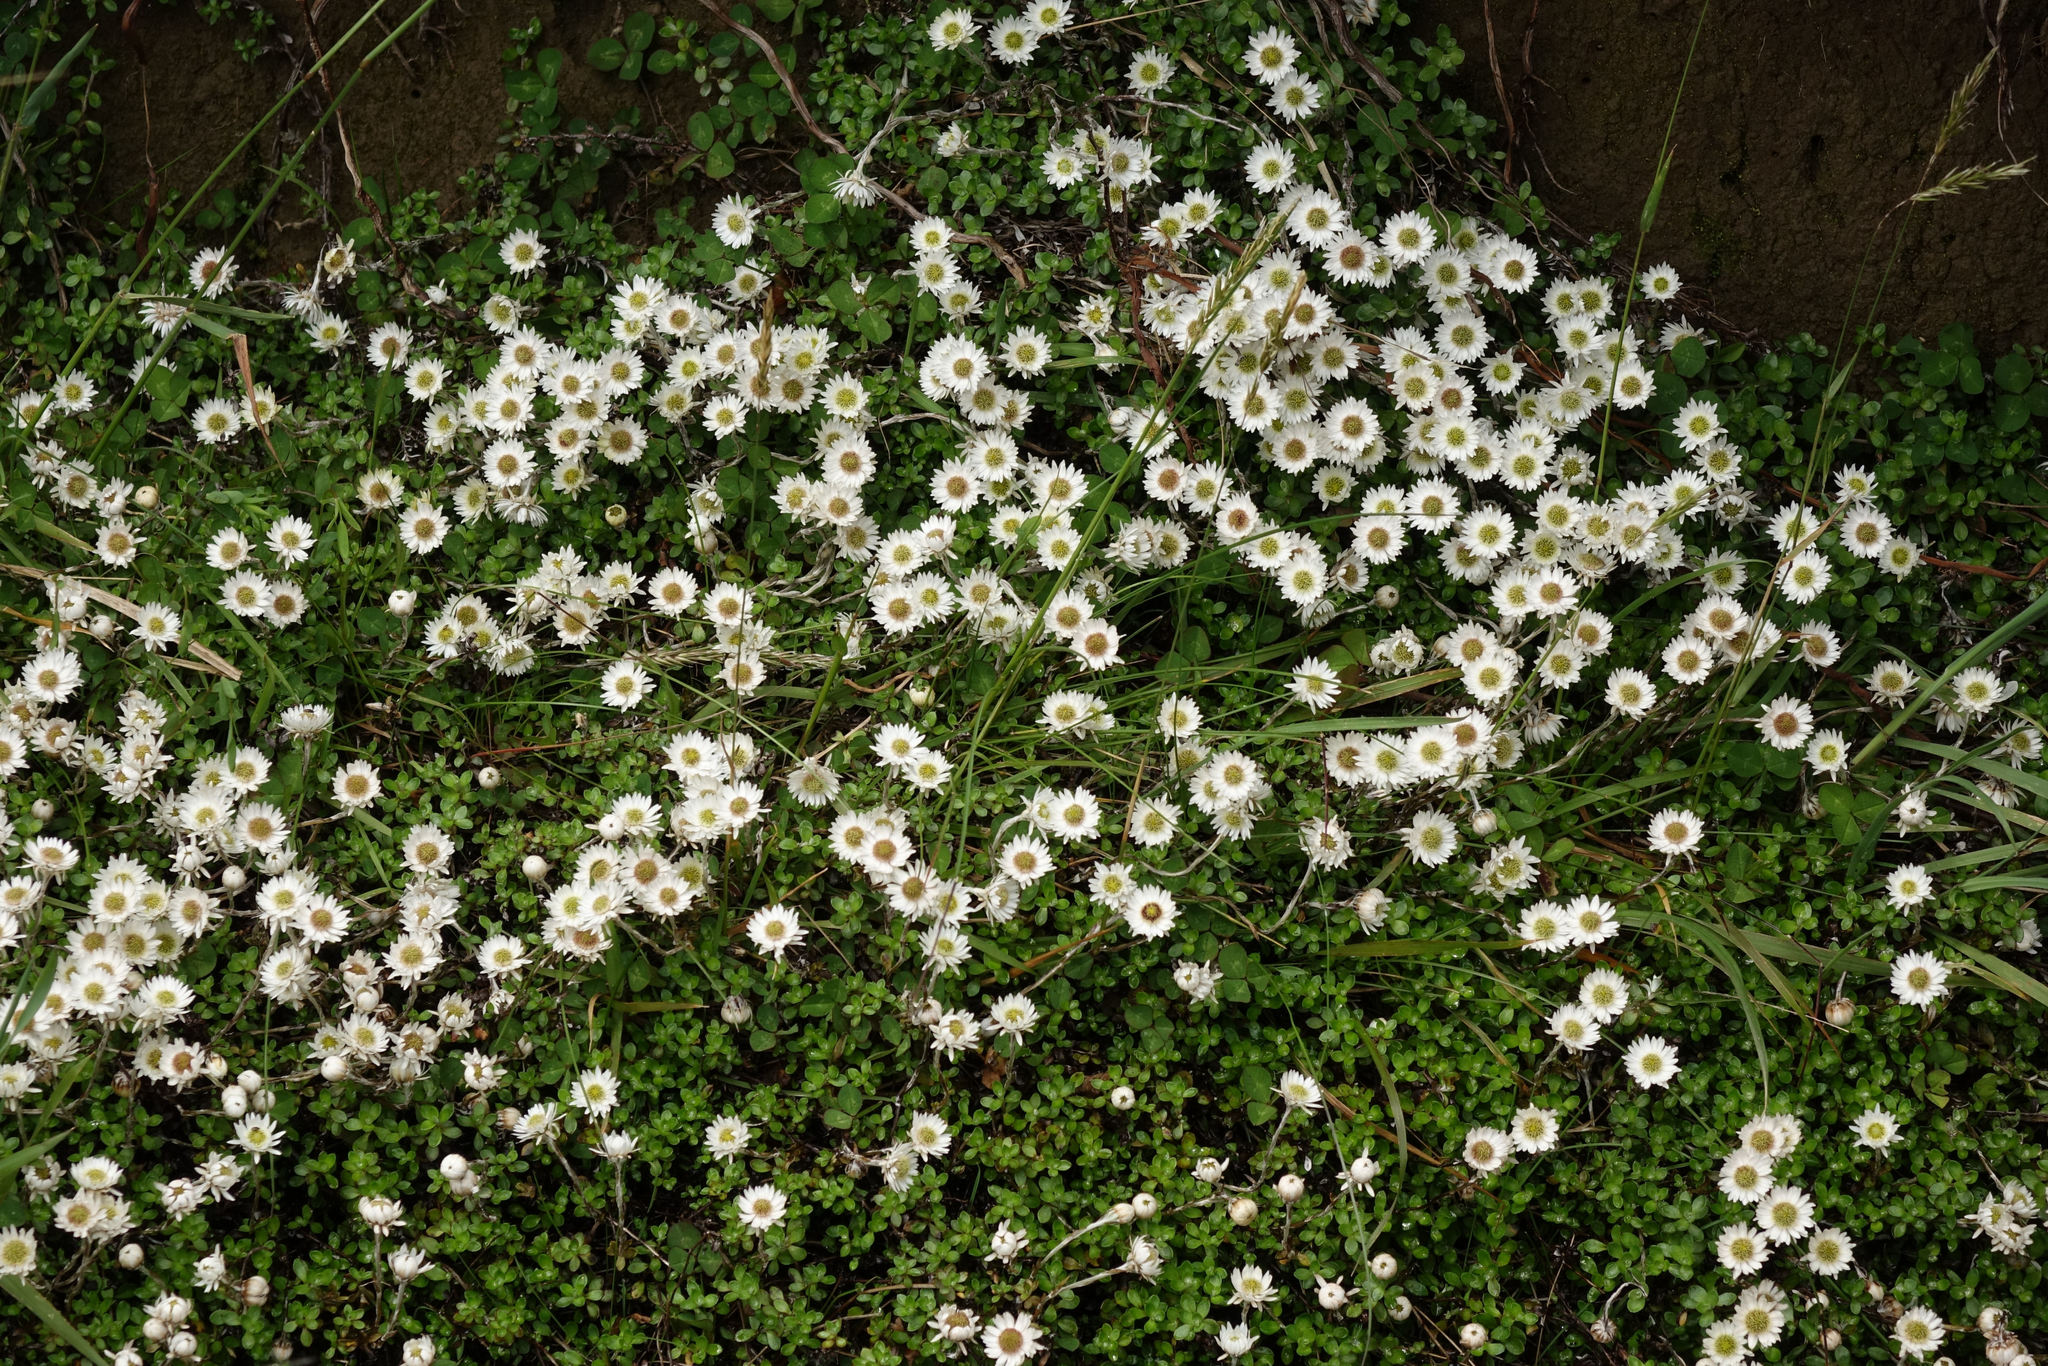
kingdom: Plantae
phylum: Tracheophyta
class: Magnoliopsida
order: Asterales
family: Asteraceae
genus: Anaphalioides
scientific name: Anaphalioides bellidioides
